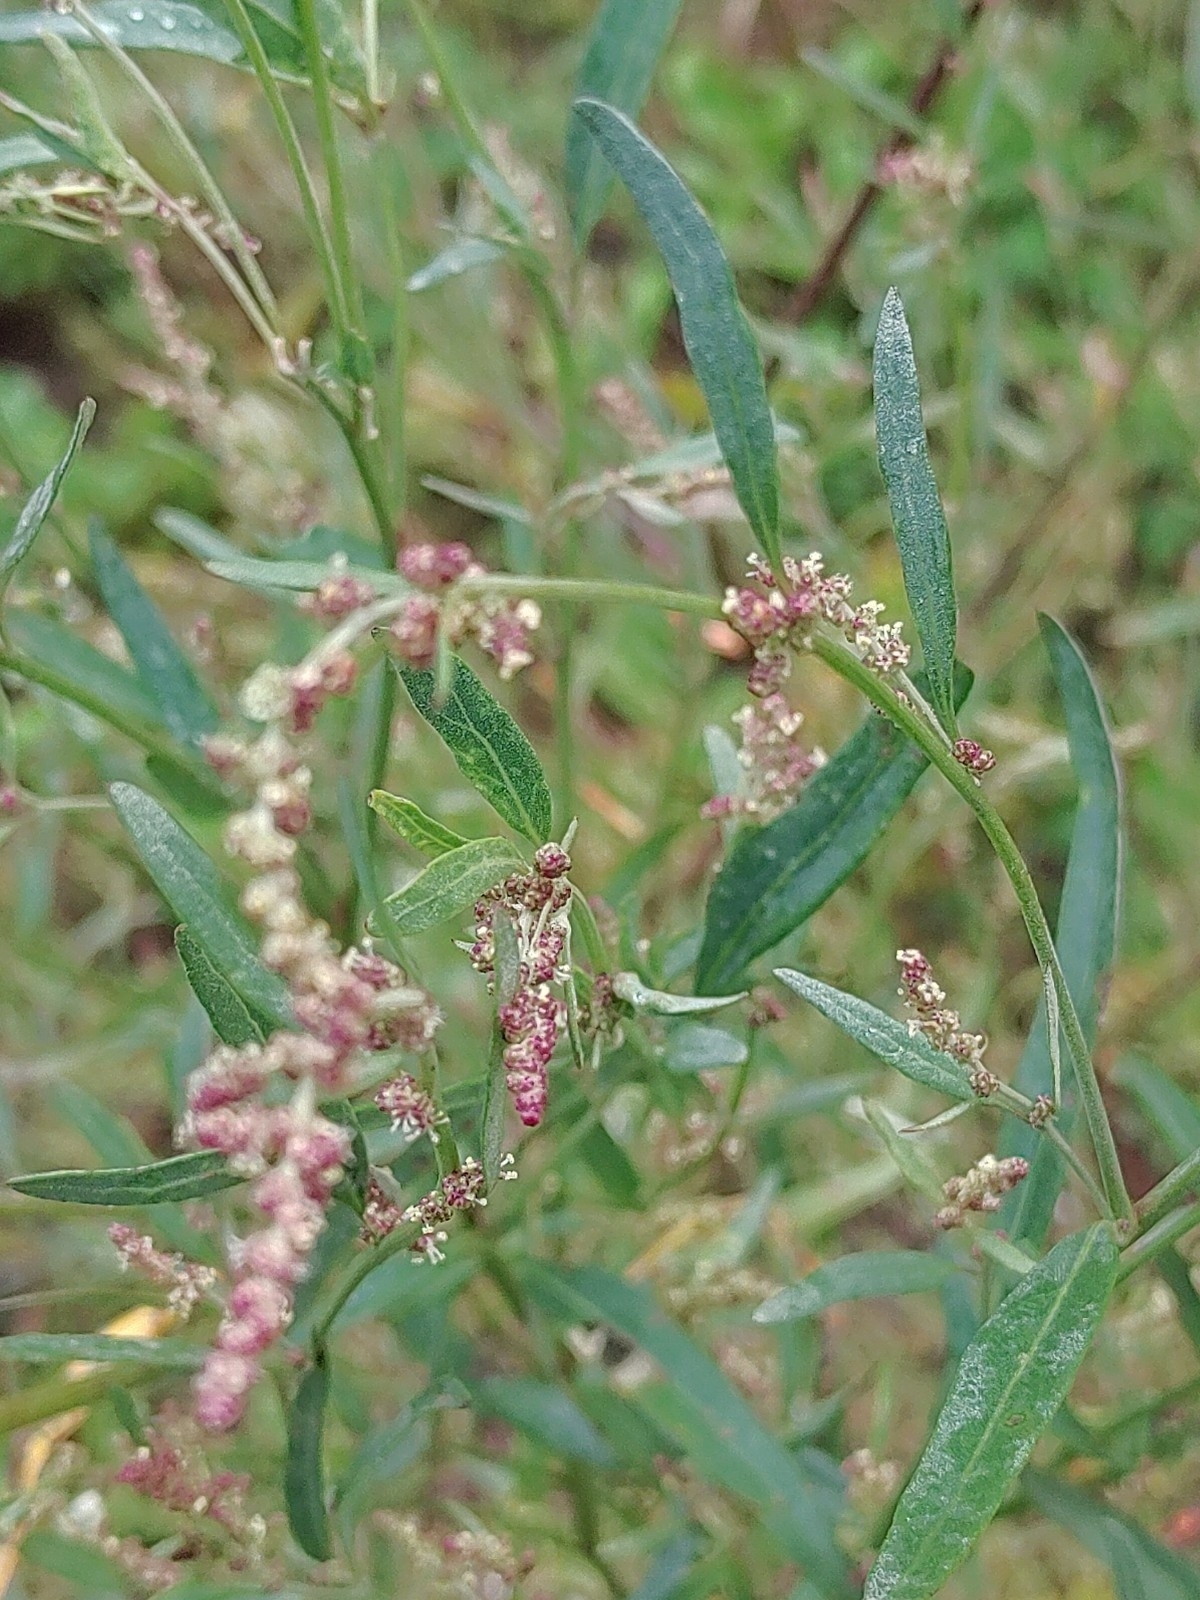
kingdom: Plantae
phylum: Tracheophyta
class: Magnoliopsida
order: Caryophyllales
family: Amaranthaceae
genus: Atriplex
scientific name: Atriplex oblongifolia
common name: Oblongleaf orache
